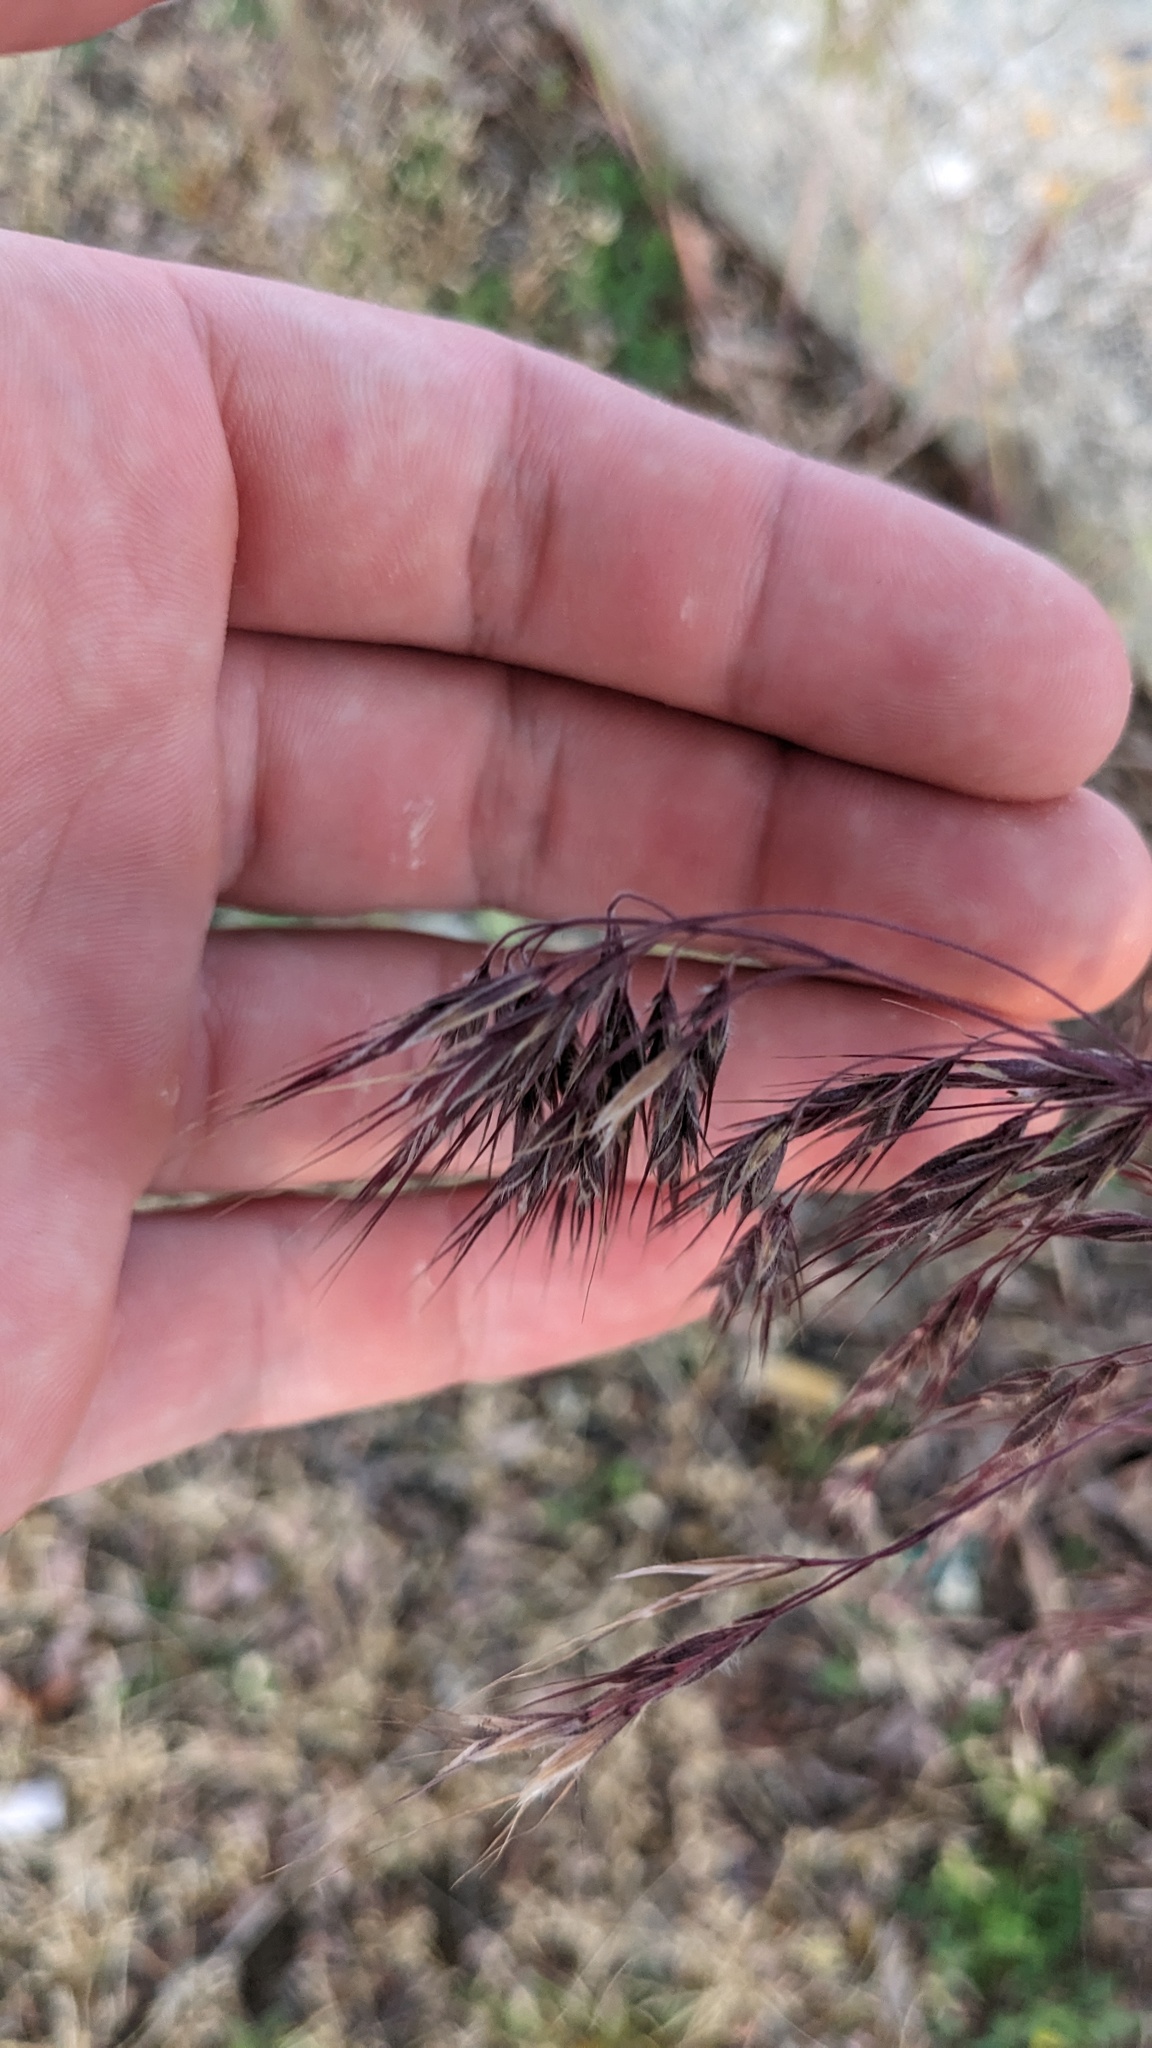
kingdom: Plantae
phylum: Tracheophyta
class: Liliopsida
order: Poales
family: Poaceae
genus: Bromus
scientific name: Bromus tectorum
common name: Cheatgrass
